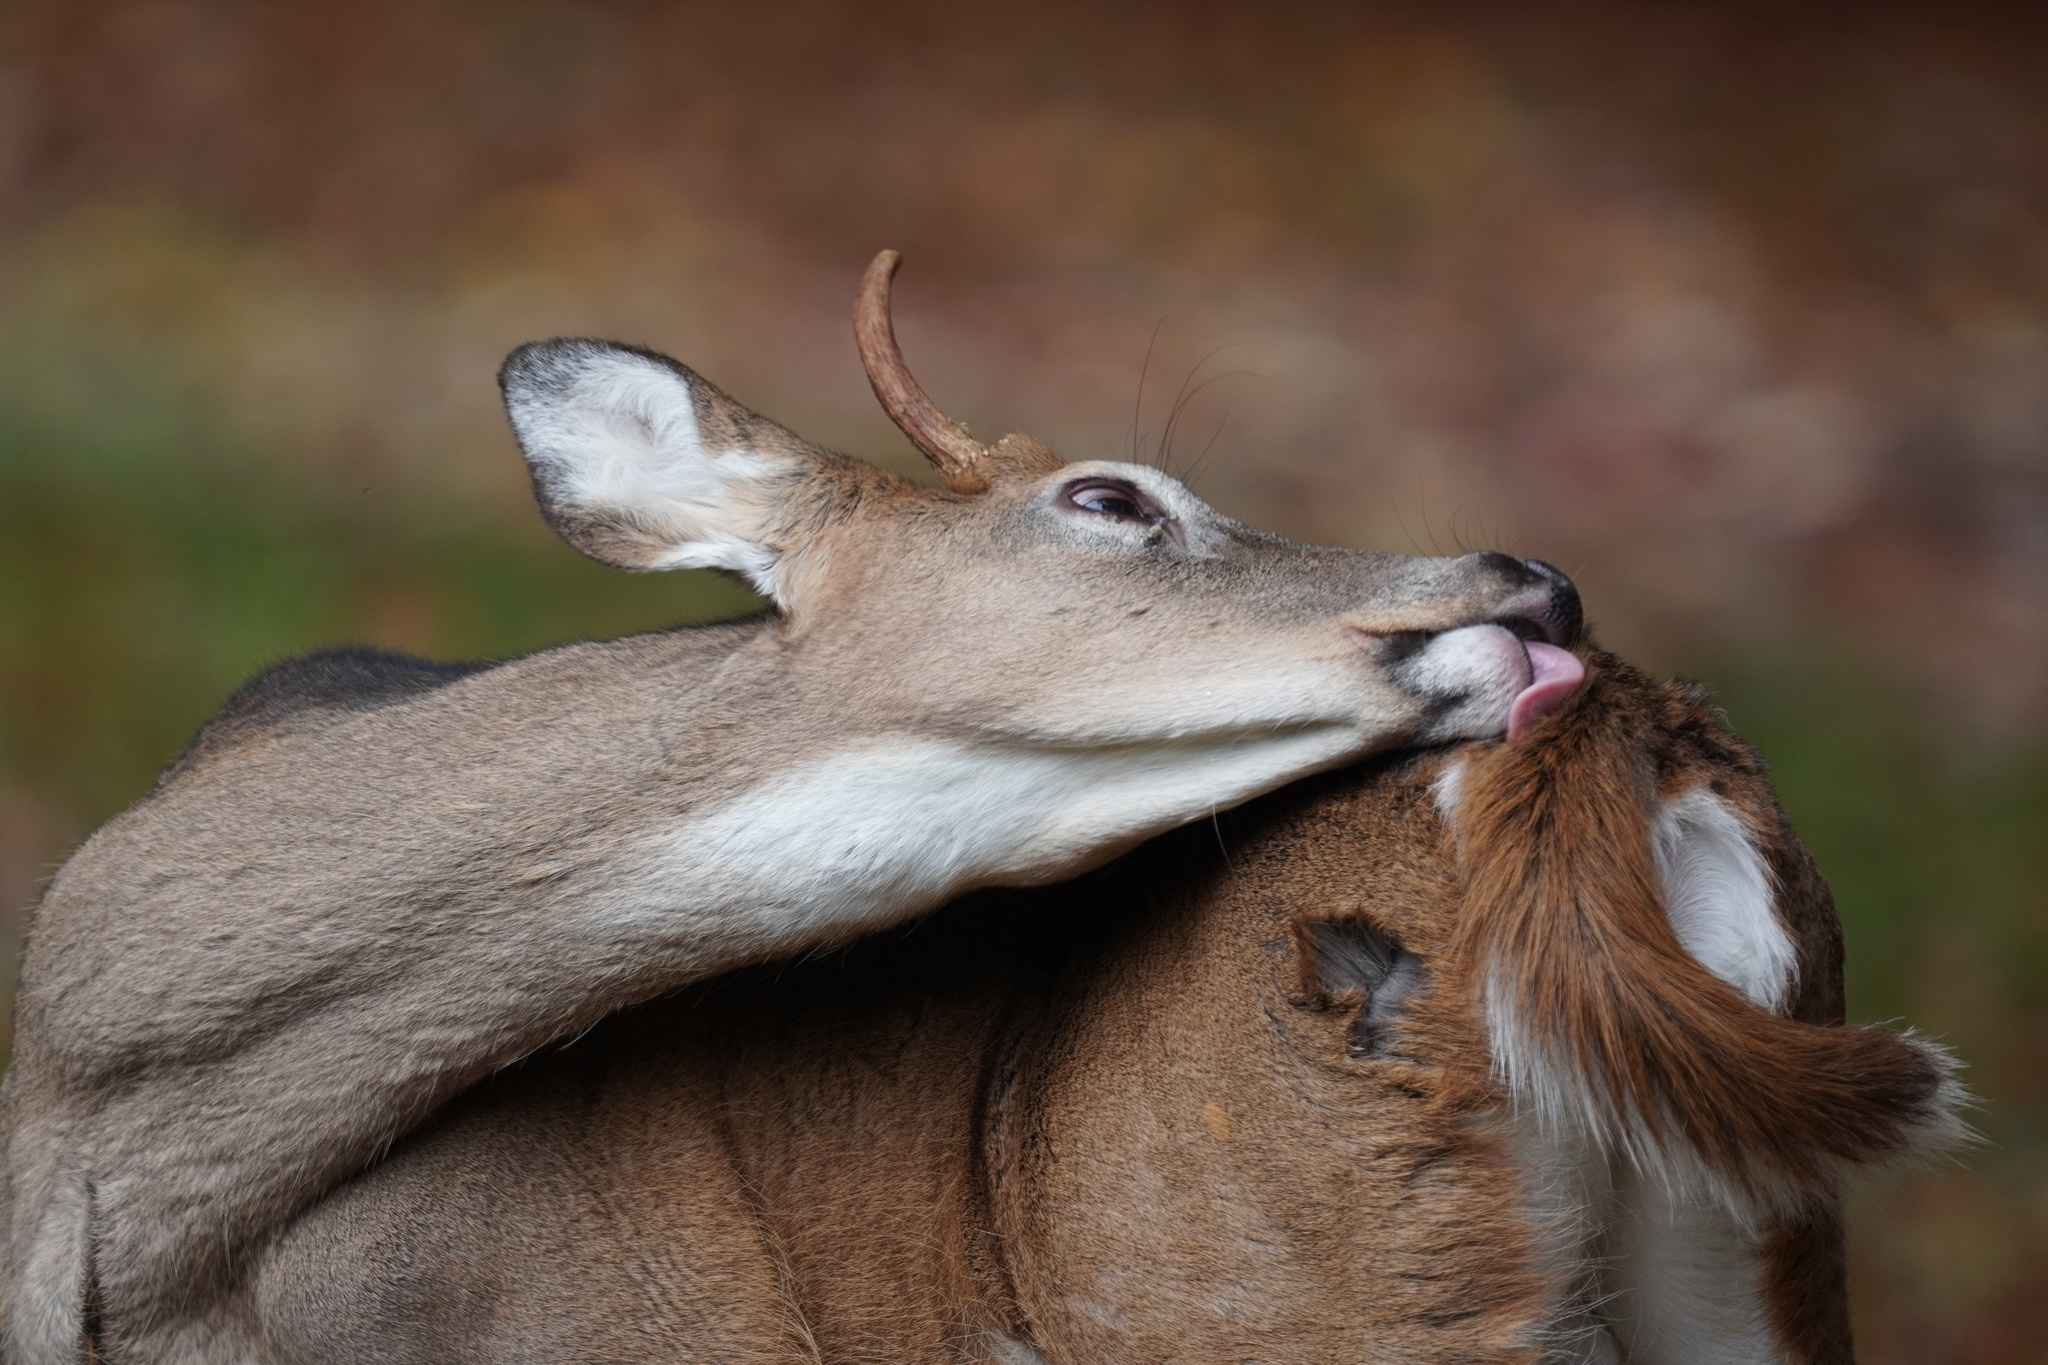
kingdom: Animalia
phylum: Chordata
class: Mammalia
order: Artiodactyla
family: Cervidae
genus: Odocoileus
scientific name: Odocoileus virginianus
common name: White-tailed deer
